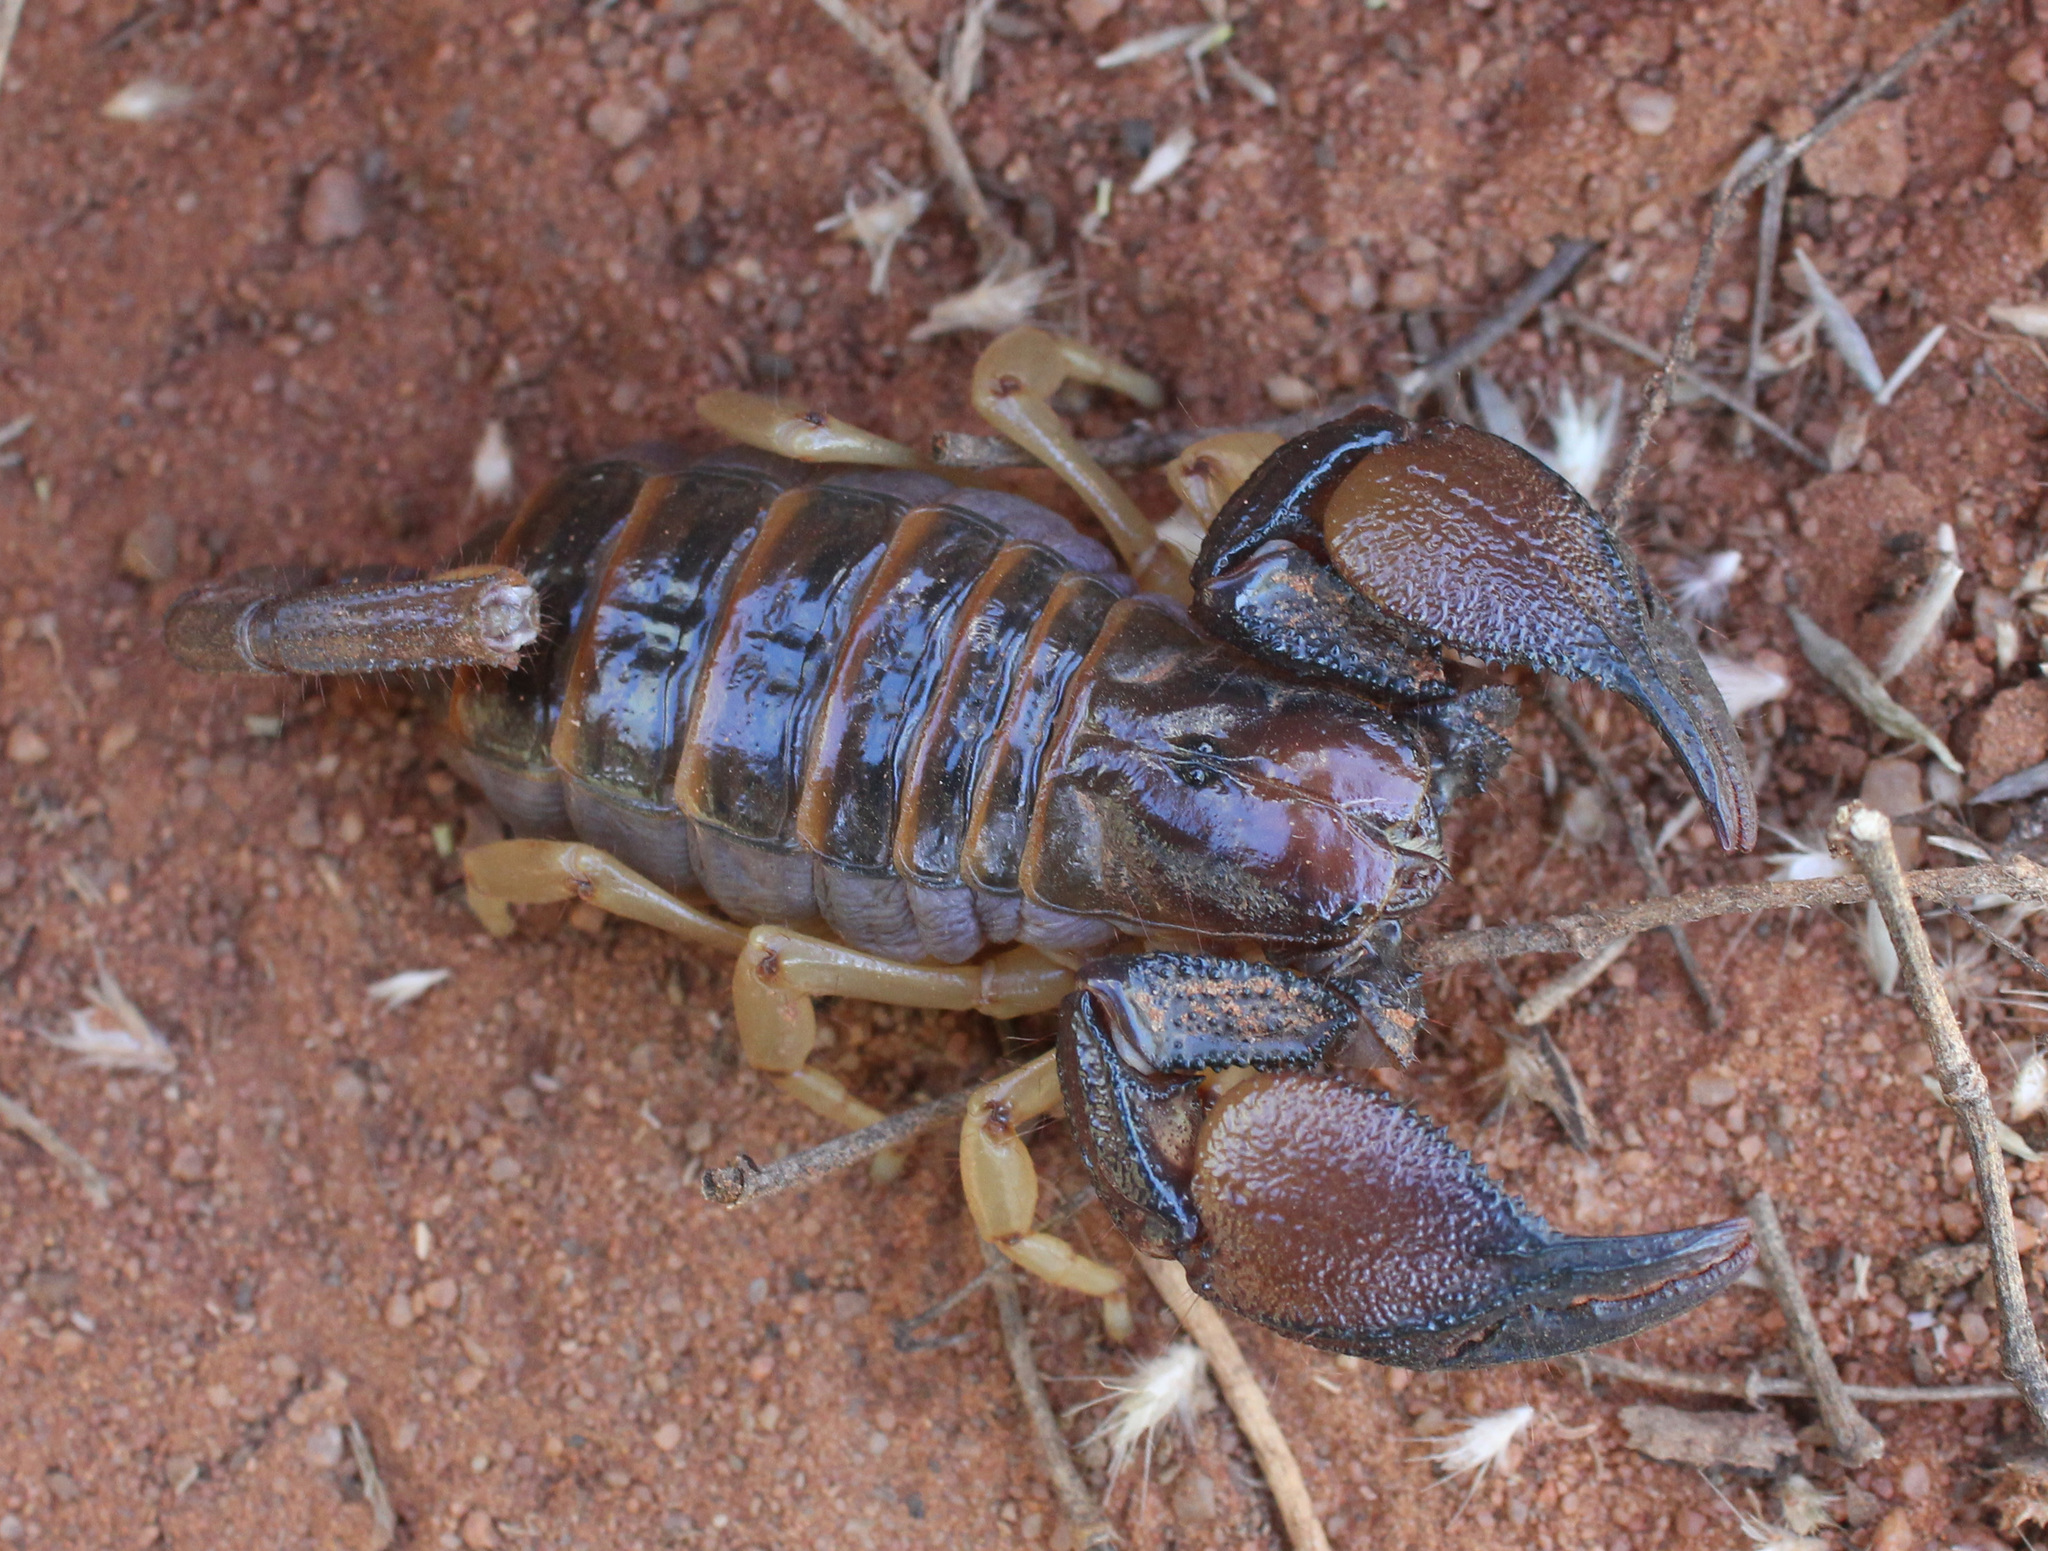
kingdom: Animalia
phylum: Arthropoda
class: Arachnida
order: Scorpiones
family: Scorpionidae
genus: Opistophthalmus
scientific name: Opistophthalmus carinatus
